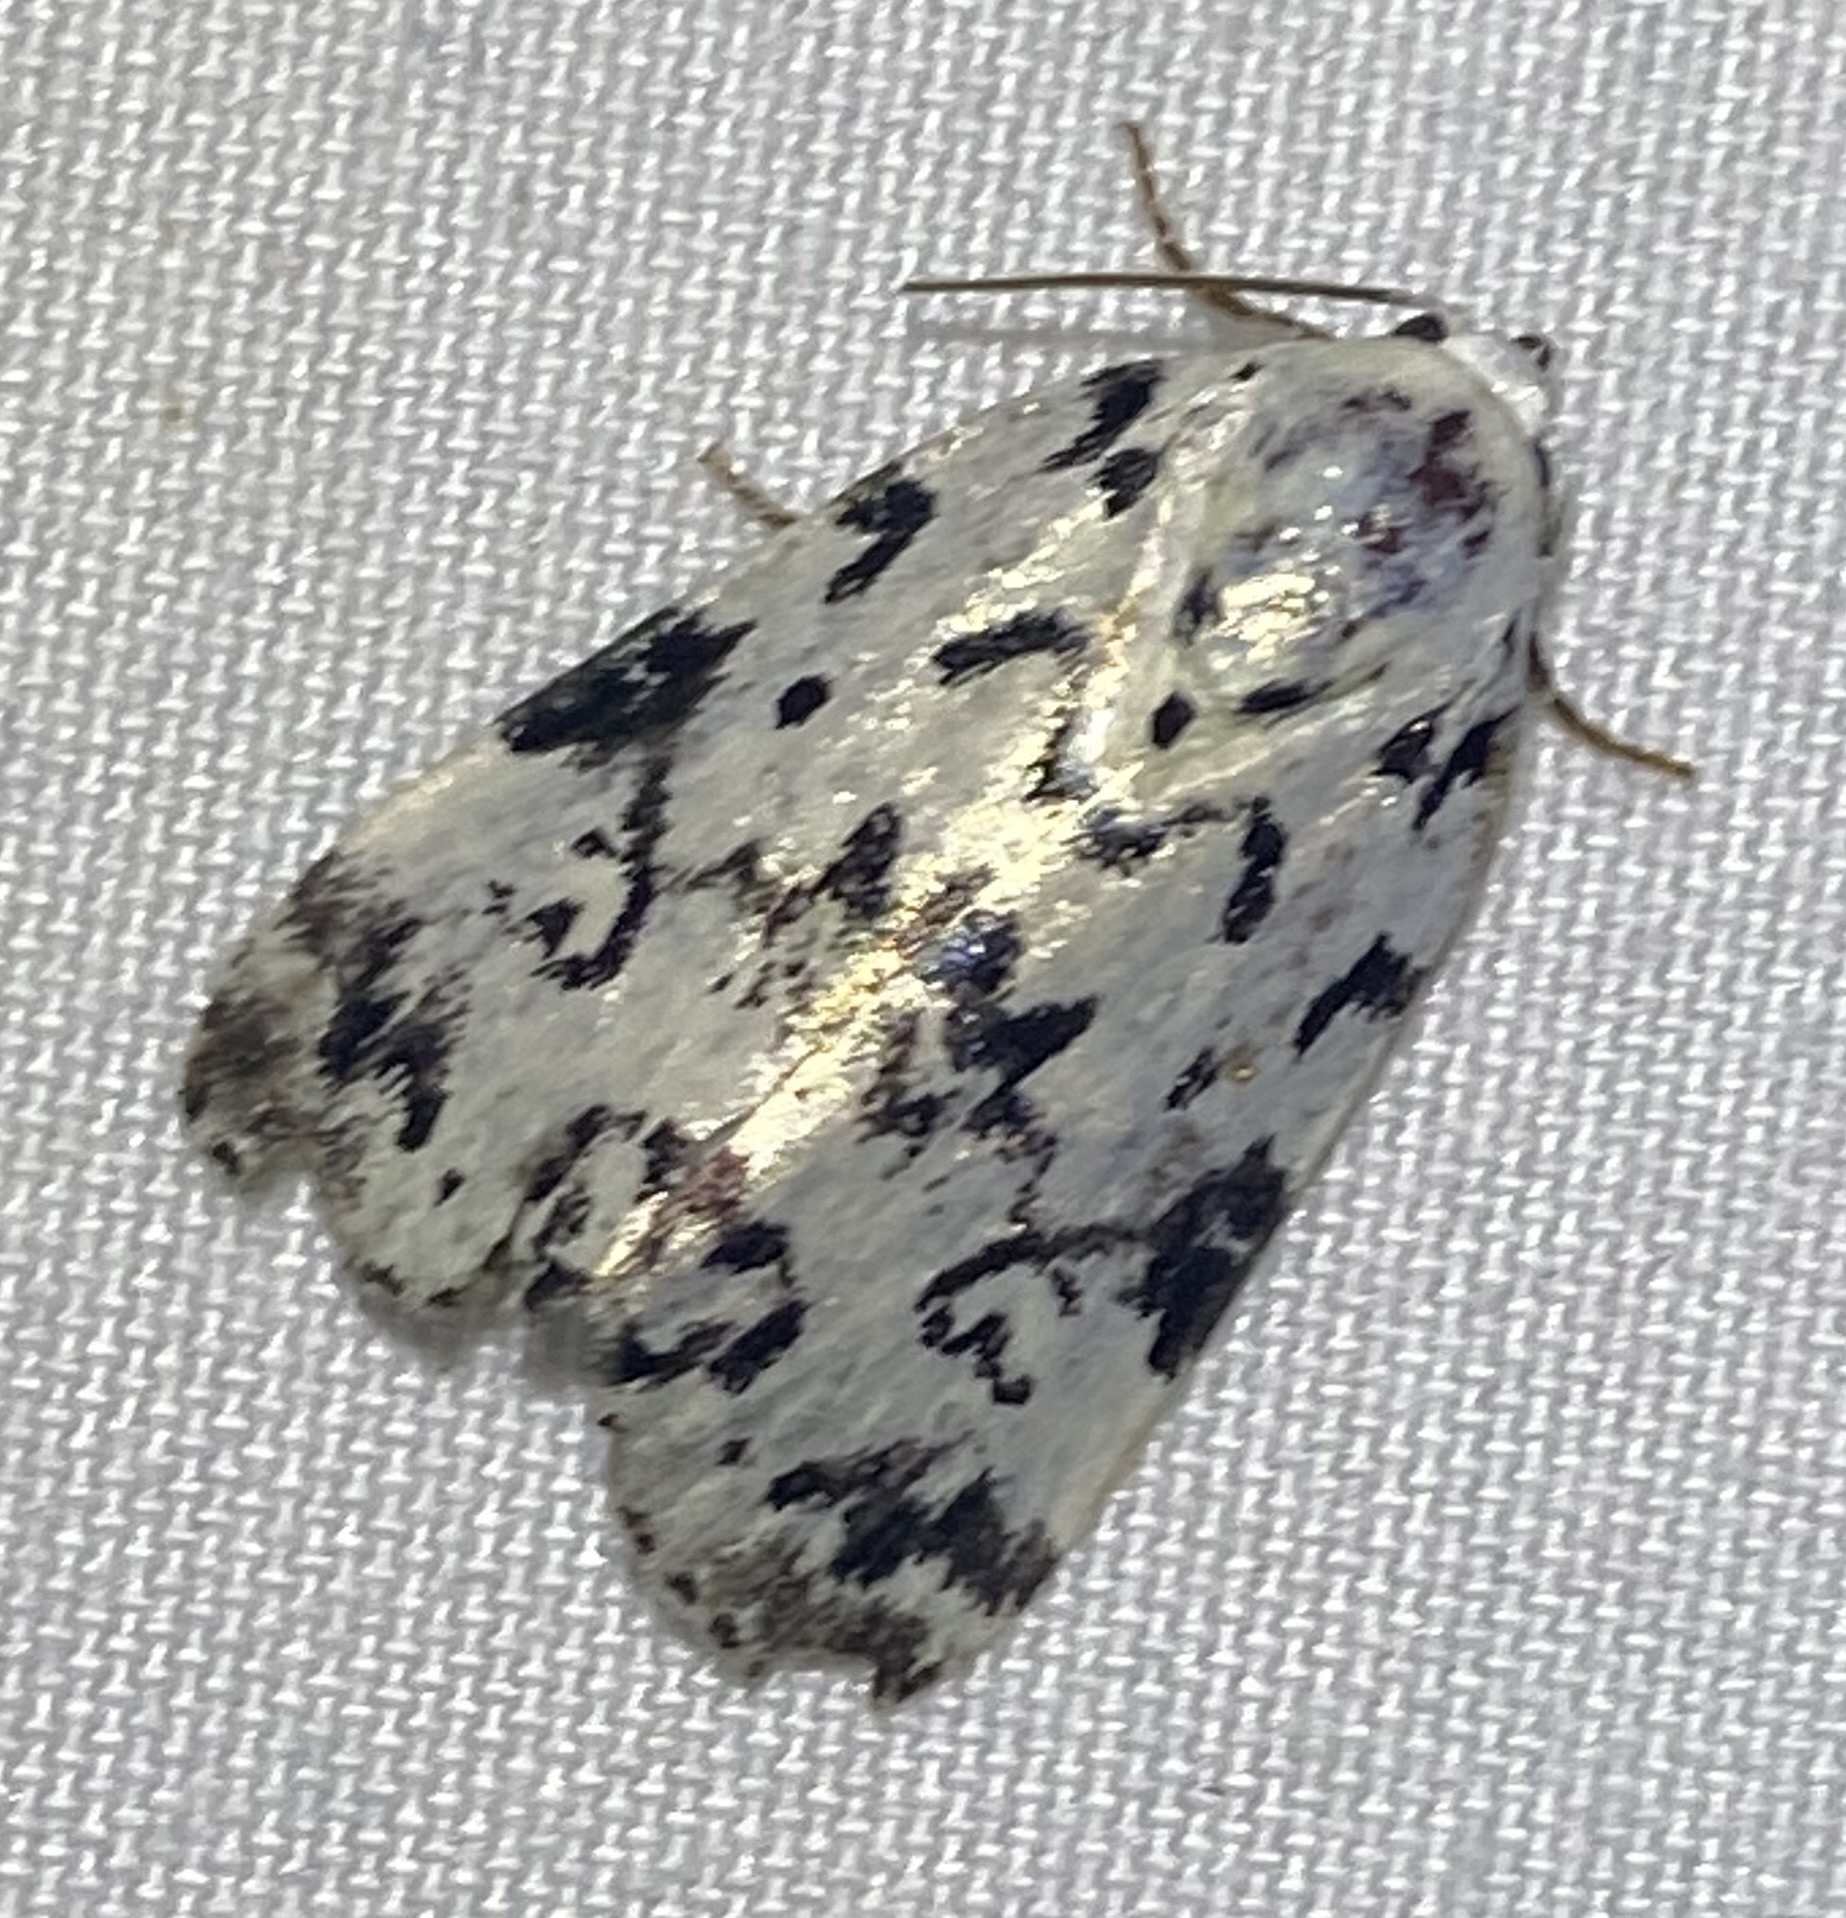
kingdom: Animalia
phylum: Arthropoda
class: Insecta
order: Lepidoptera
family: Noctuidae
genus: Polygrammate
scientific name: Polygrammate hebraeicum
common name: Hebrew moth
